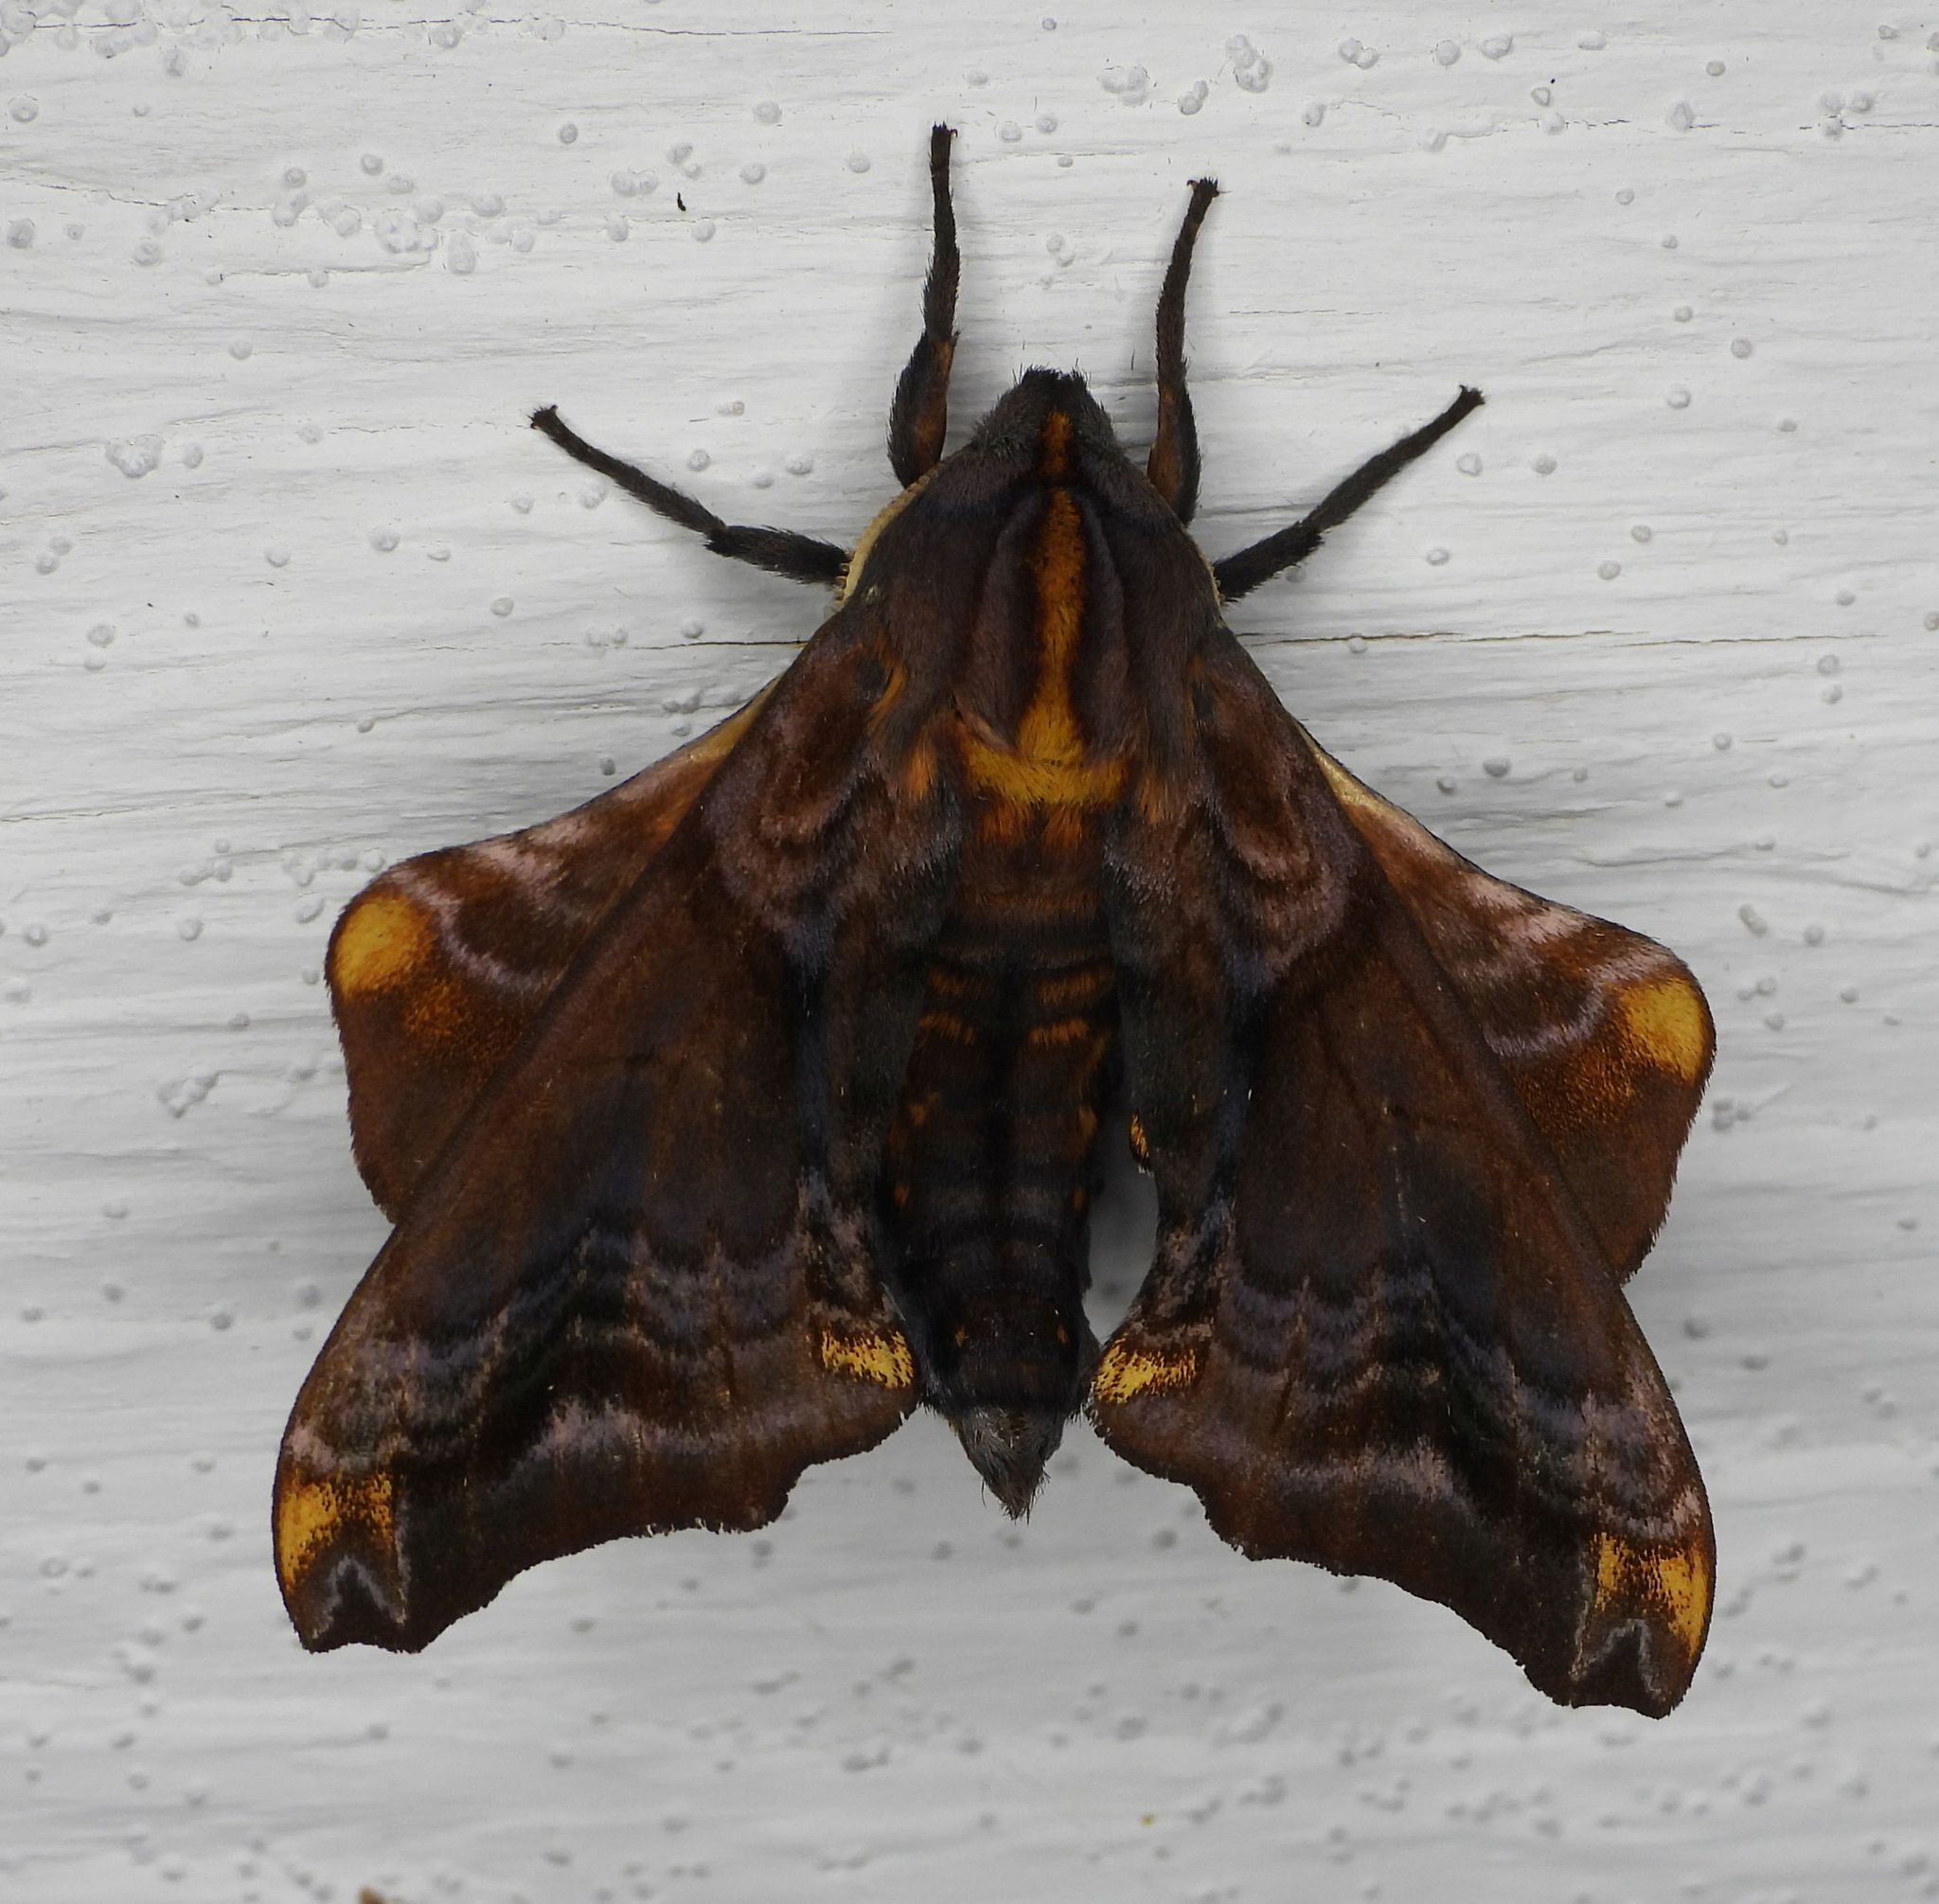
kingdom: Animalia
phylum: Arthropoda
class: Insecta
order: Lepidoptera
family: Sphingidae
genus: Paonias
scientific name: Paonias myops
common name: Small-eyed sphinx
